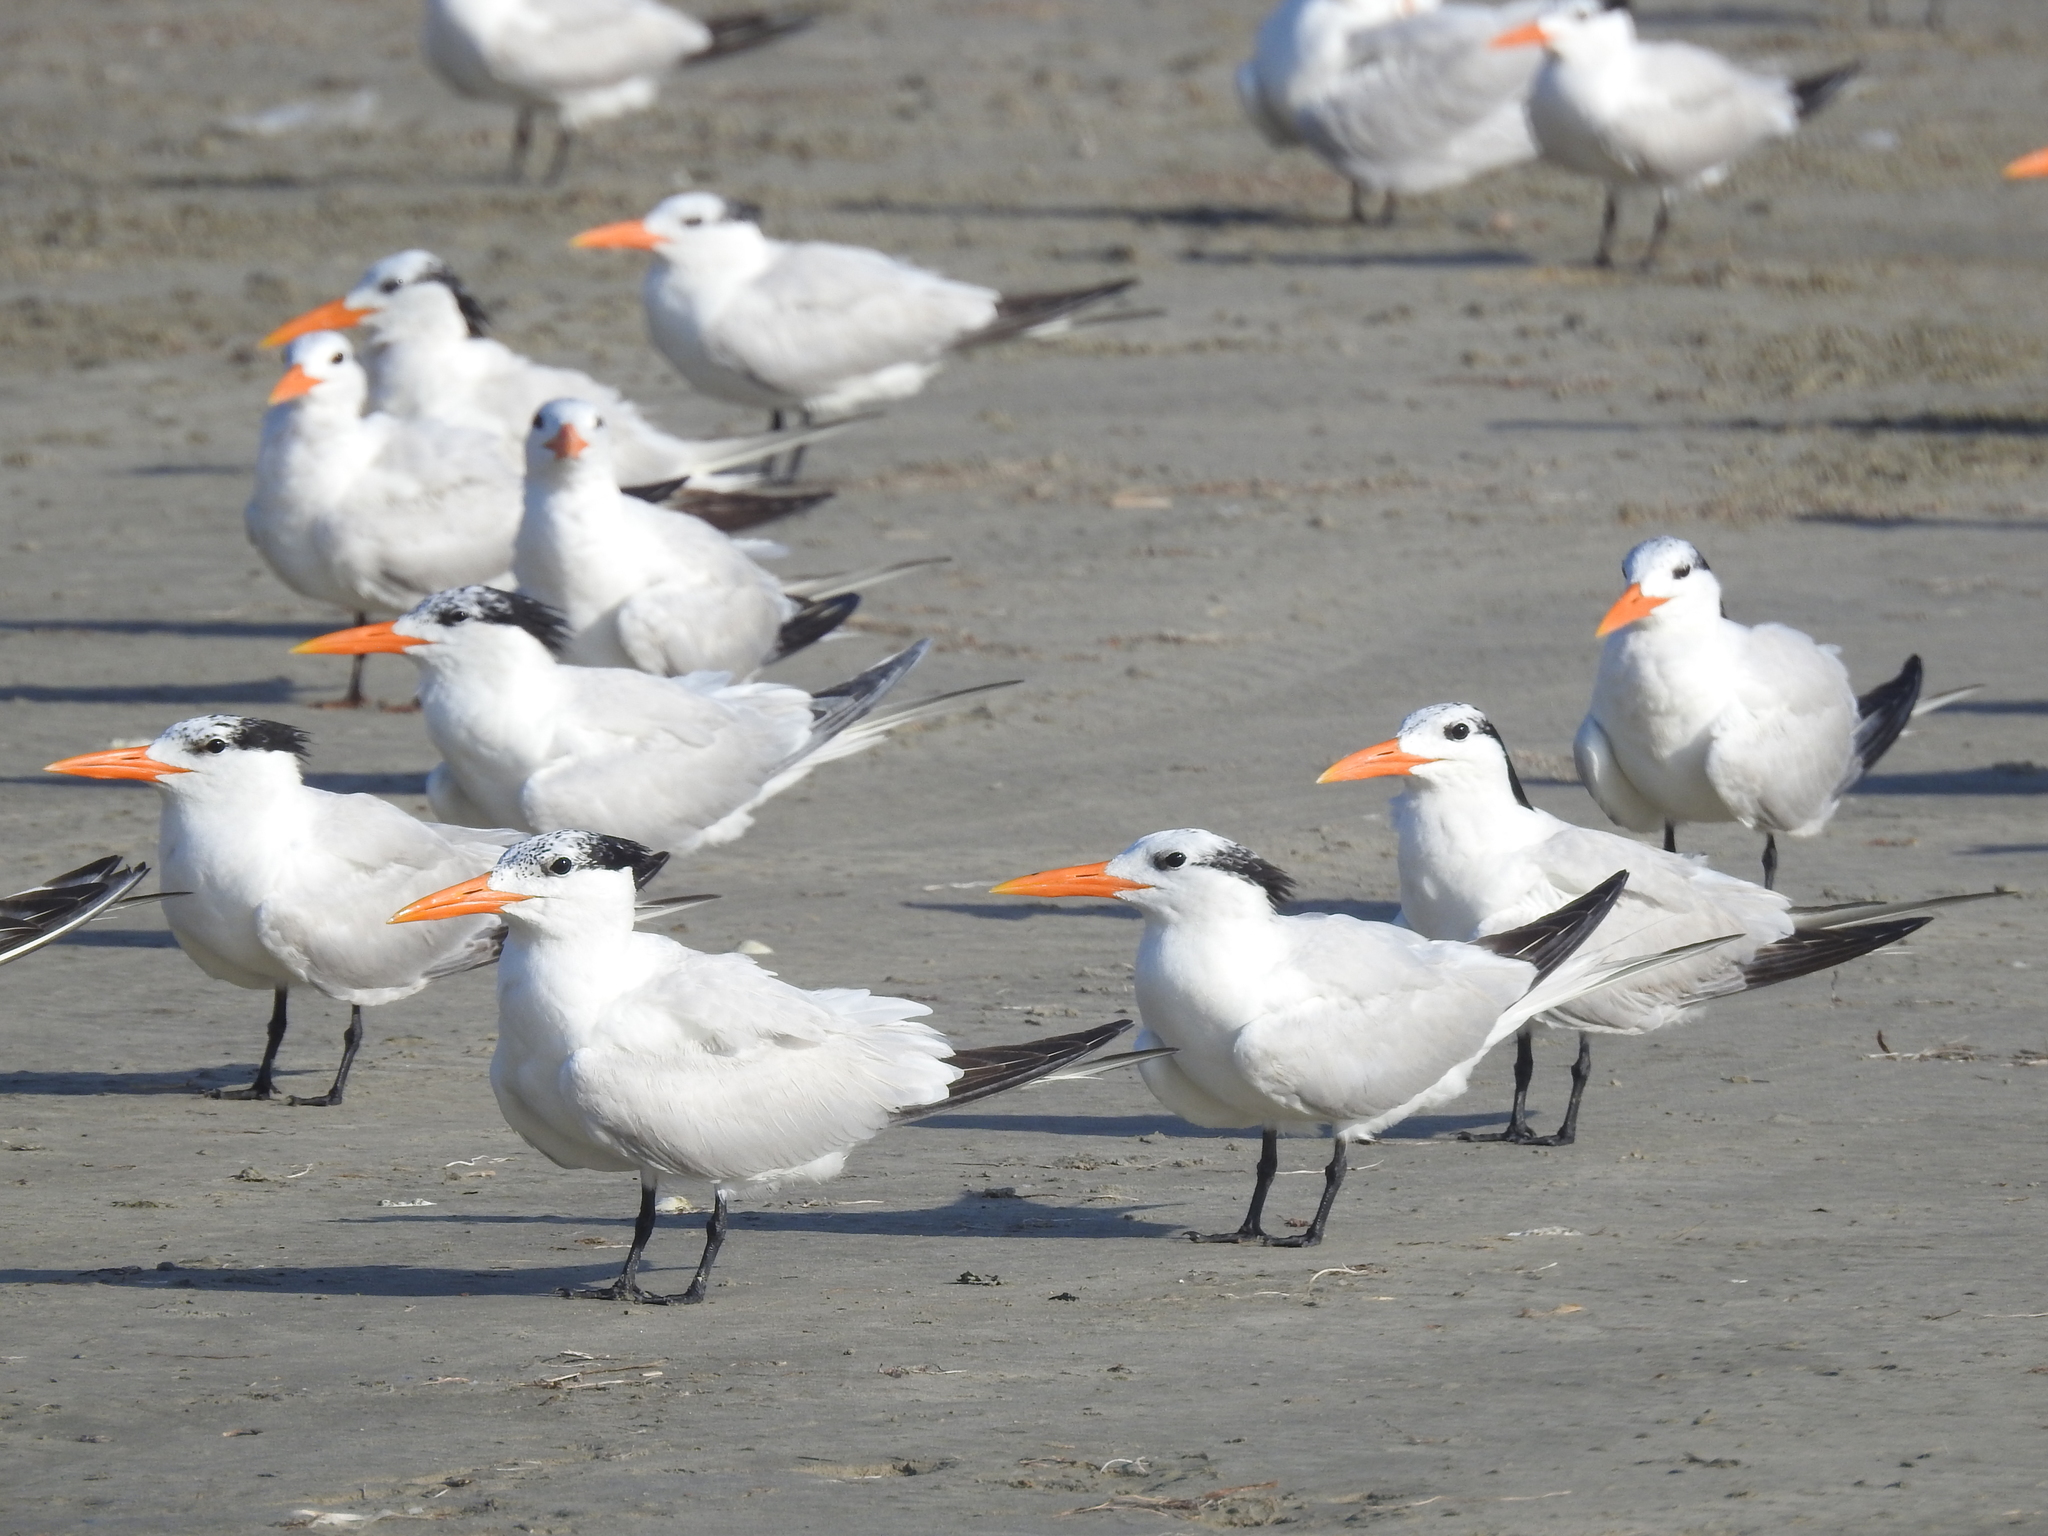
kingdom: Animalia
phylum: Chordata
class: Aves
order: Charadriiformes
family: Laridae
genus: Thalasseus
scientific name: Thalasseus maximus
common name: Royal tern
